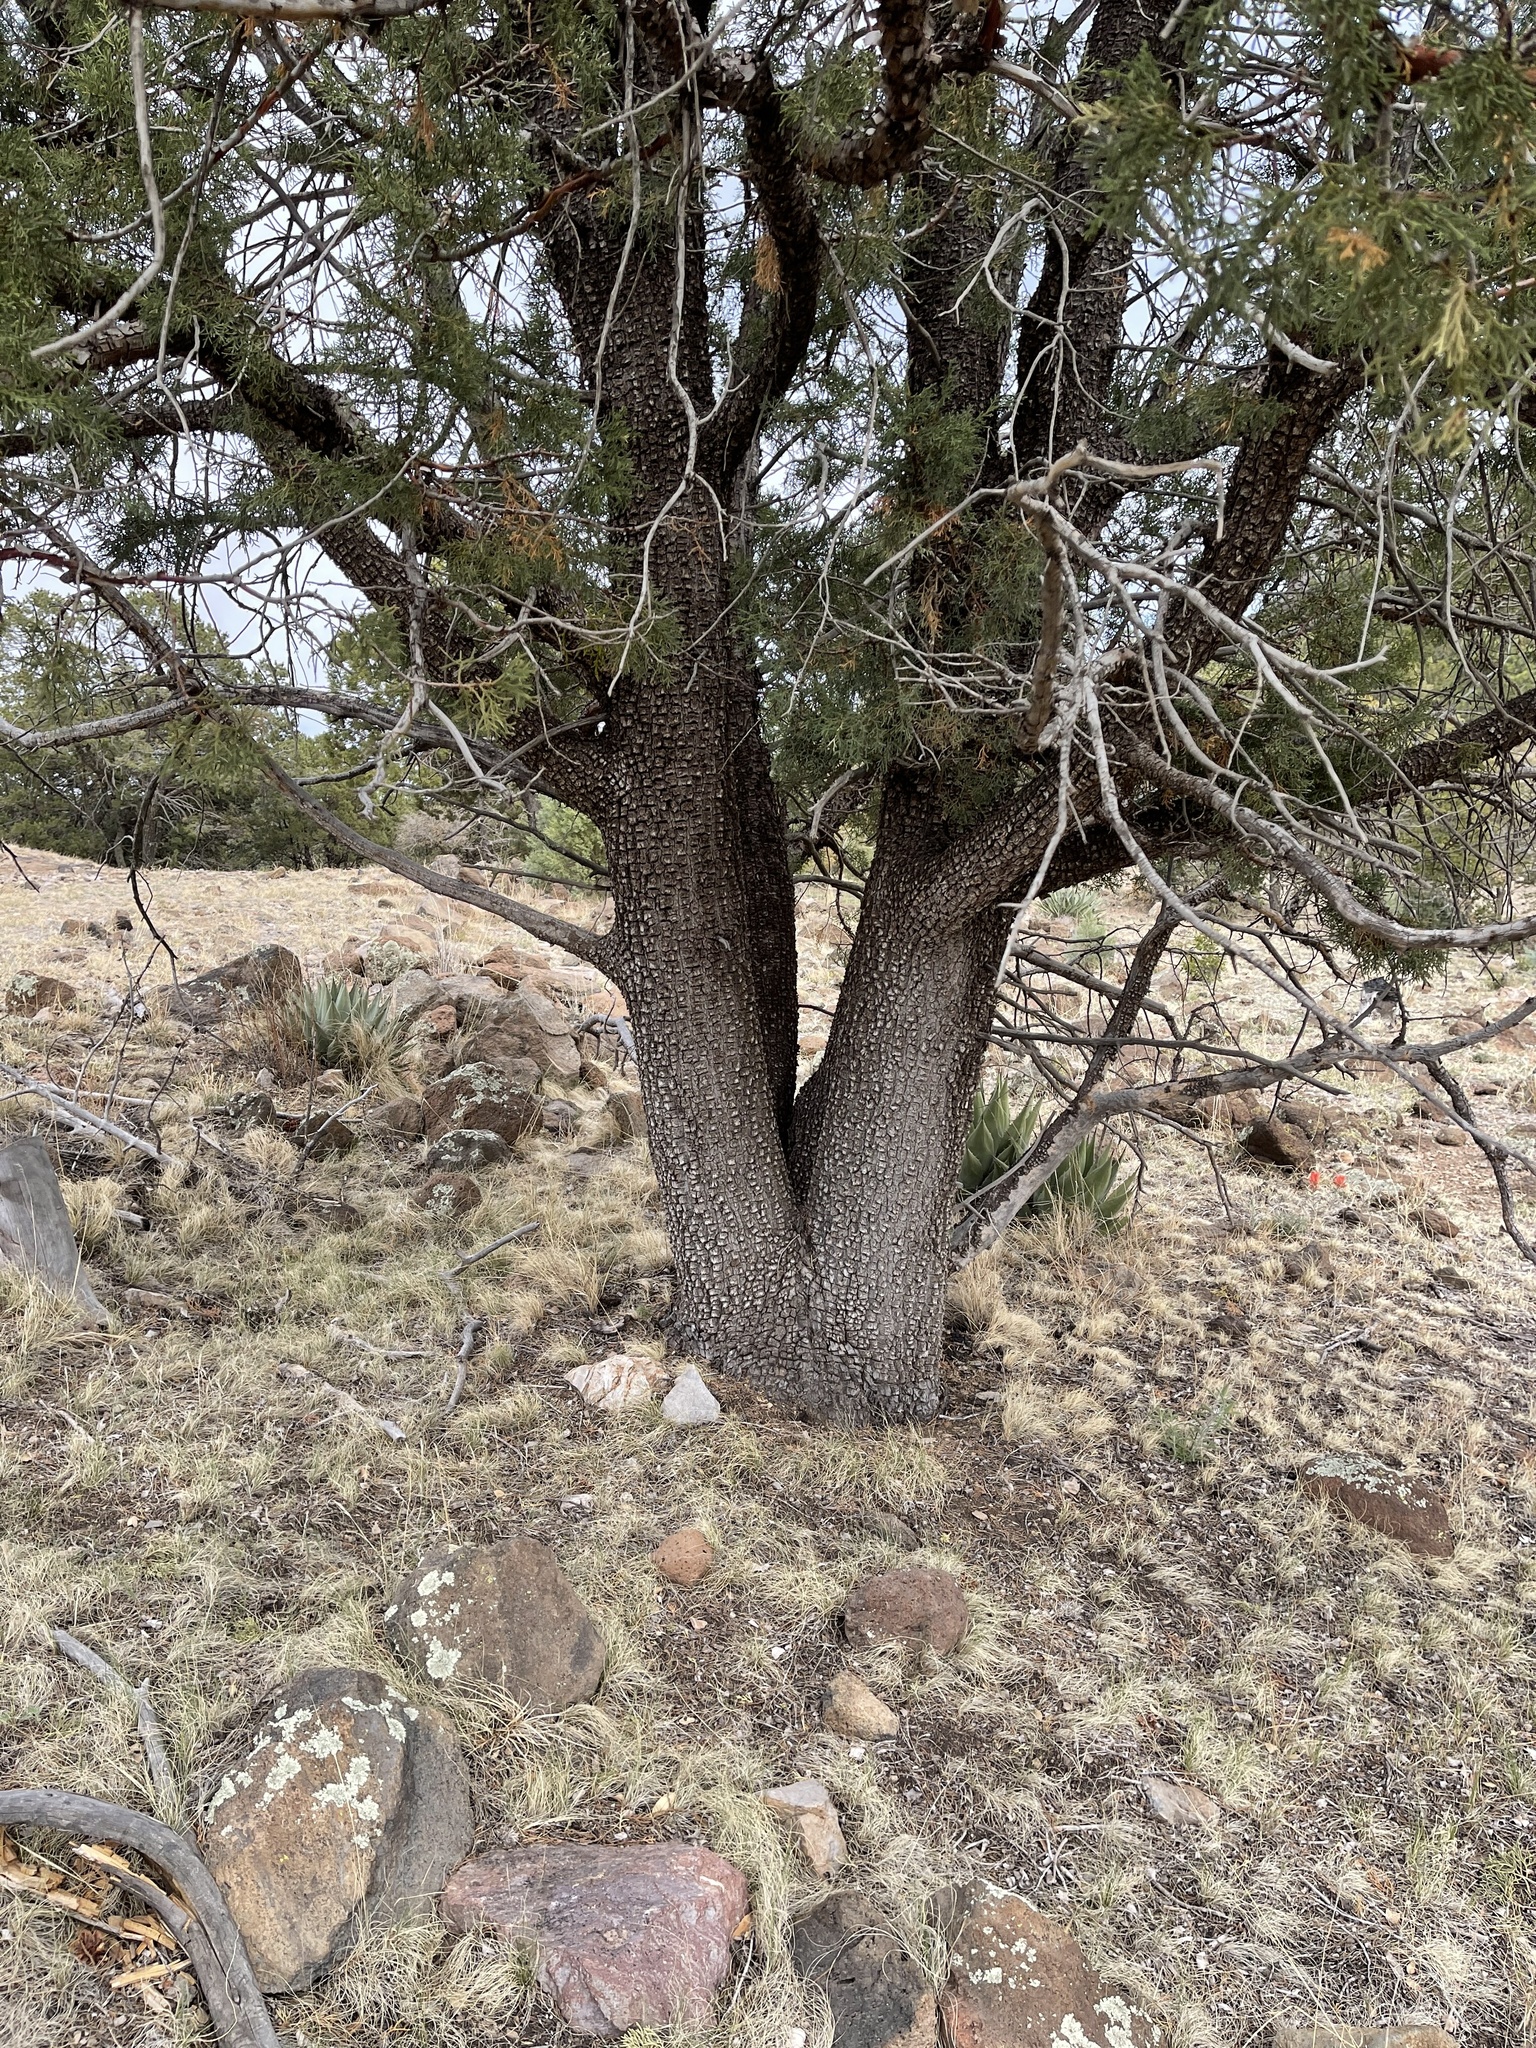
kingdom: Plantae
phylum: Tracheophyta
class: Pinopsida
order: Pinales
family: Cupressaceae
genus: Juniperus
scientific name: Juniperus deppeana
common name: Alligator juniper
